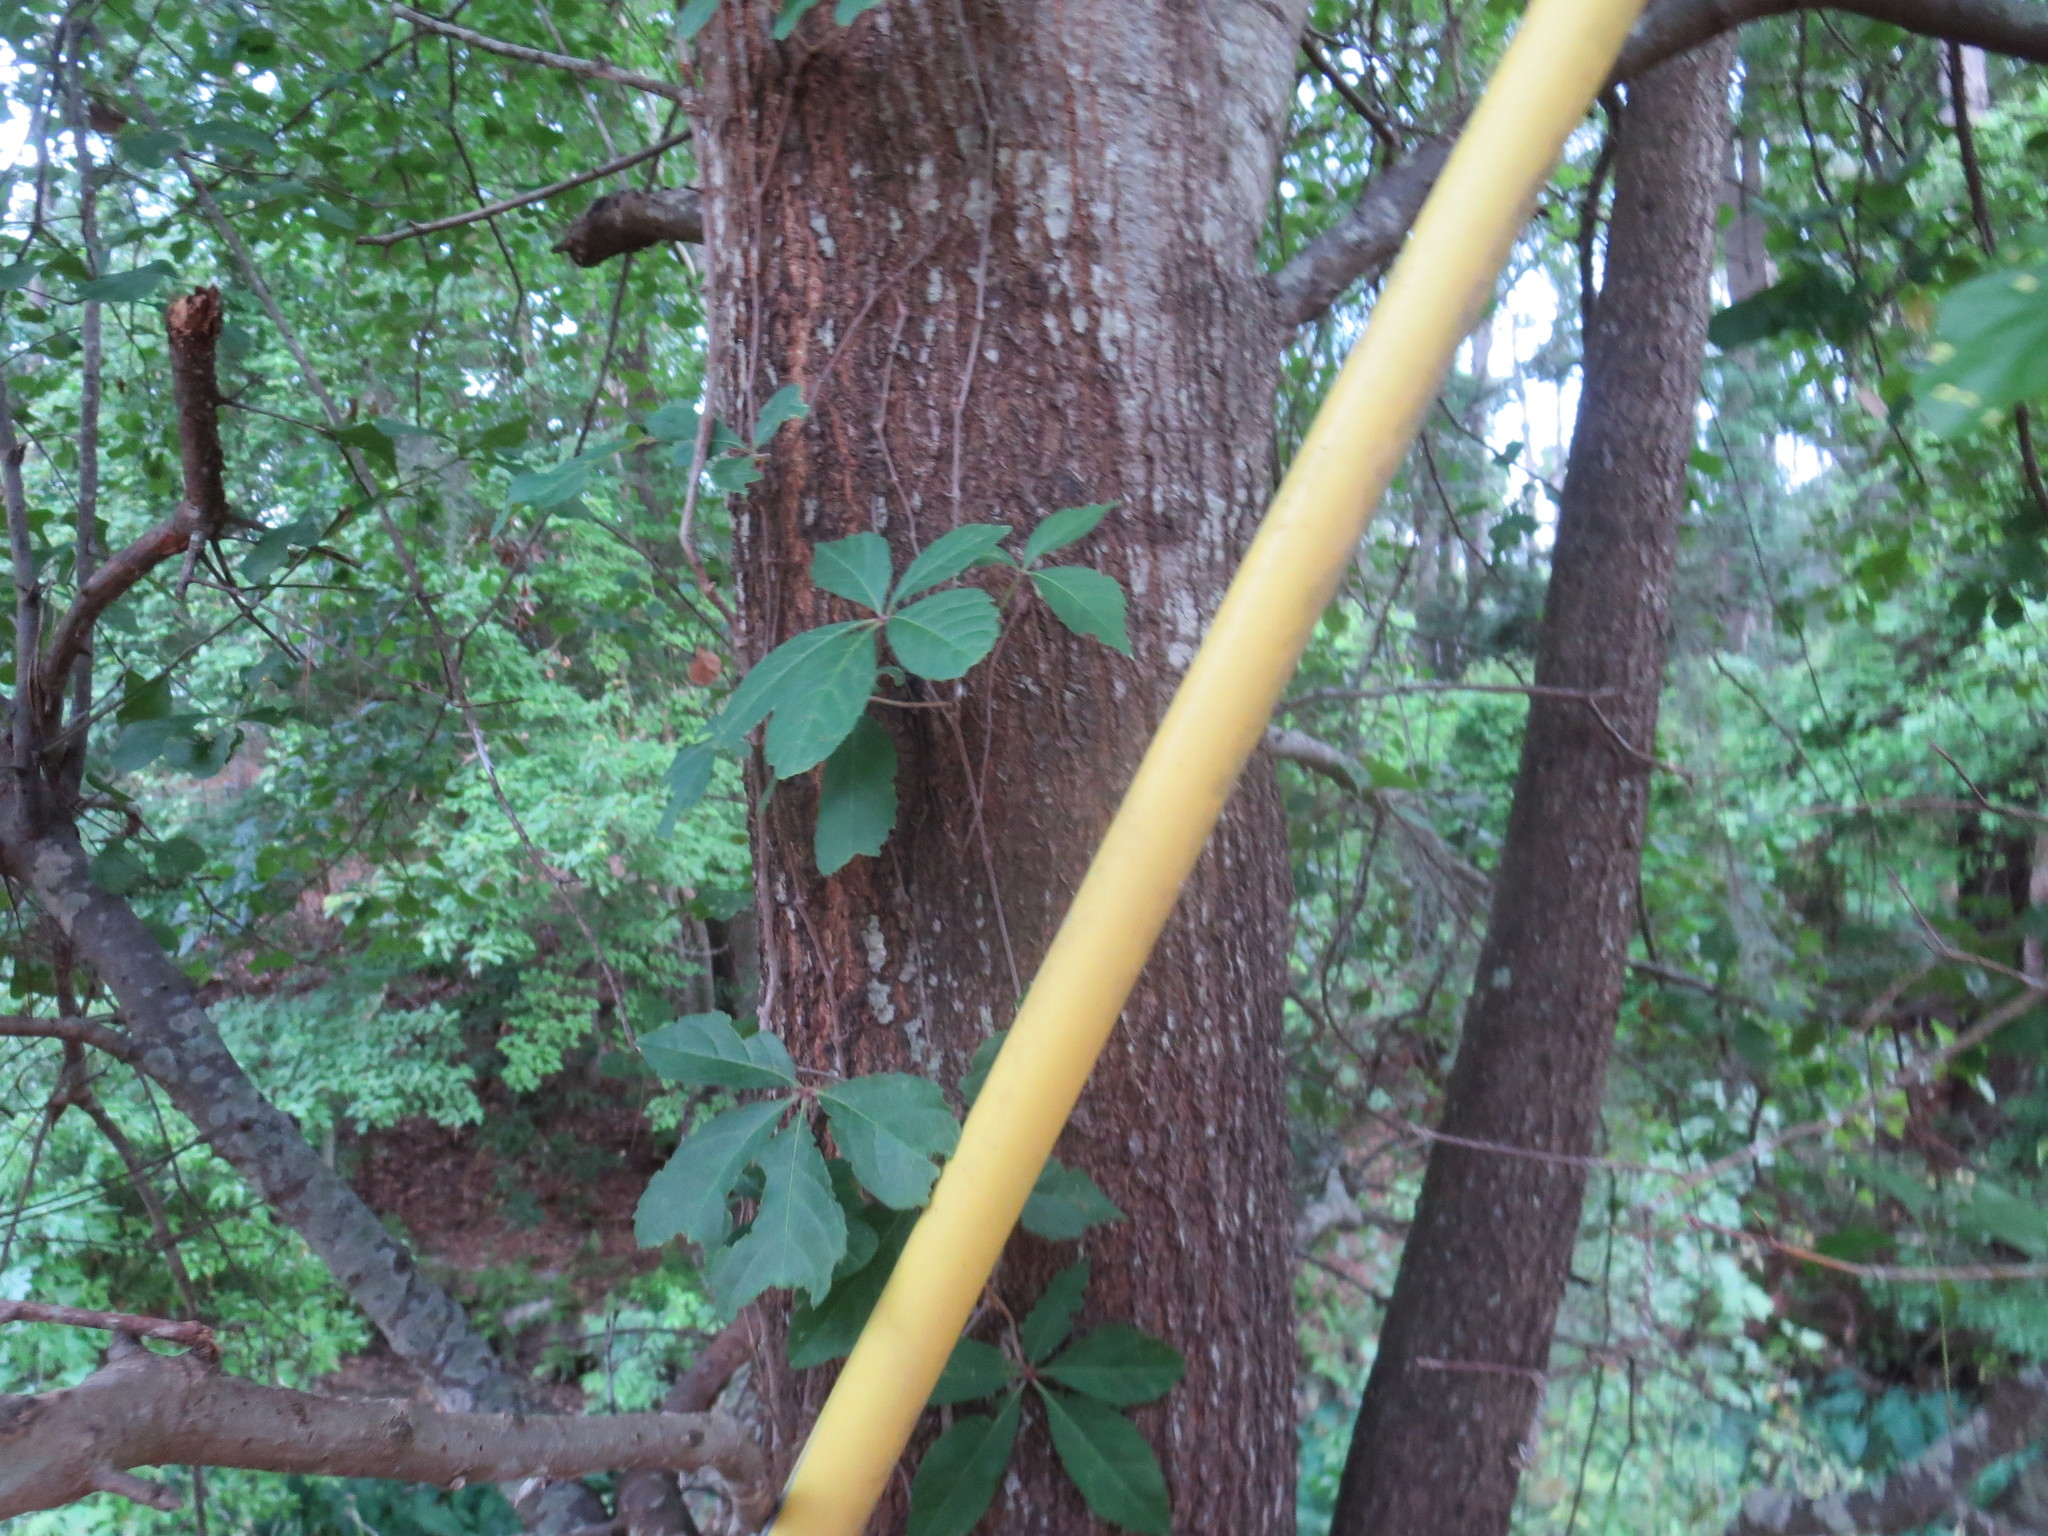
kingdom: Plantae
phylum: Tracheophyta
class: Magnoliopsida
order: Vitales
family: Vitaceae
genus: Parthenocissus
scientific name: Parthenocissus quinquefolia
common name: Virginia-creeper
